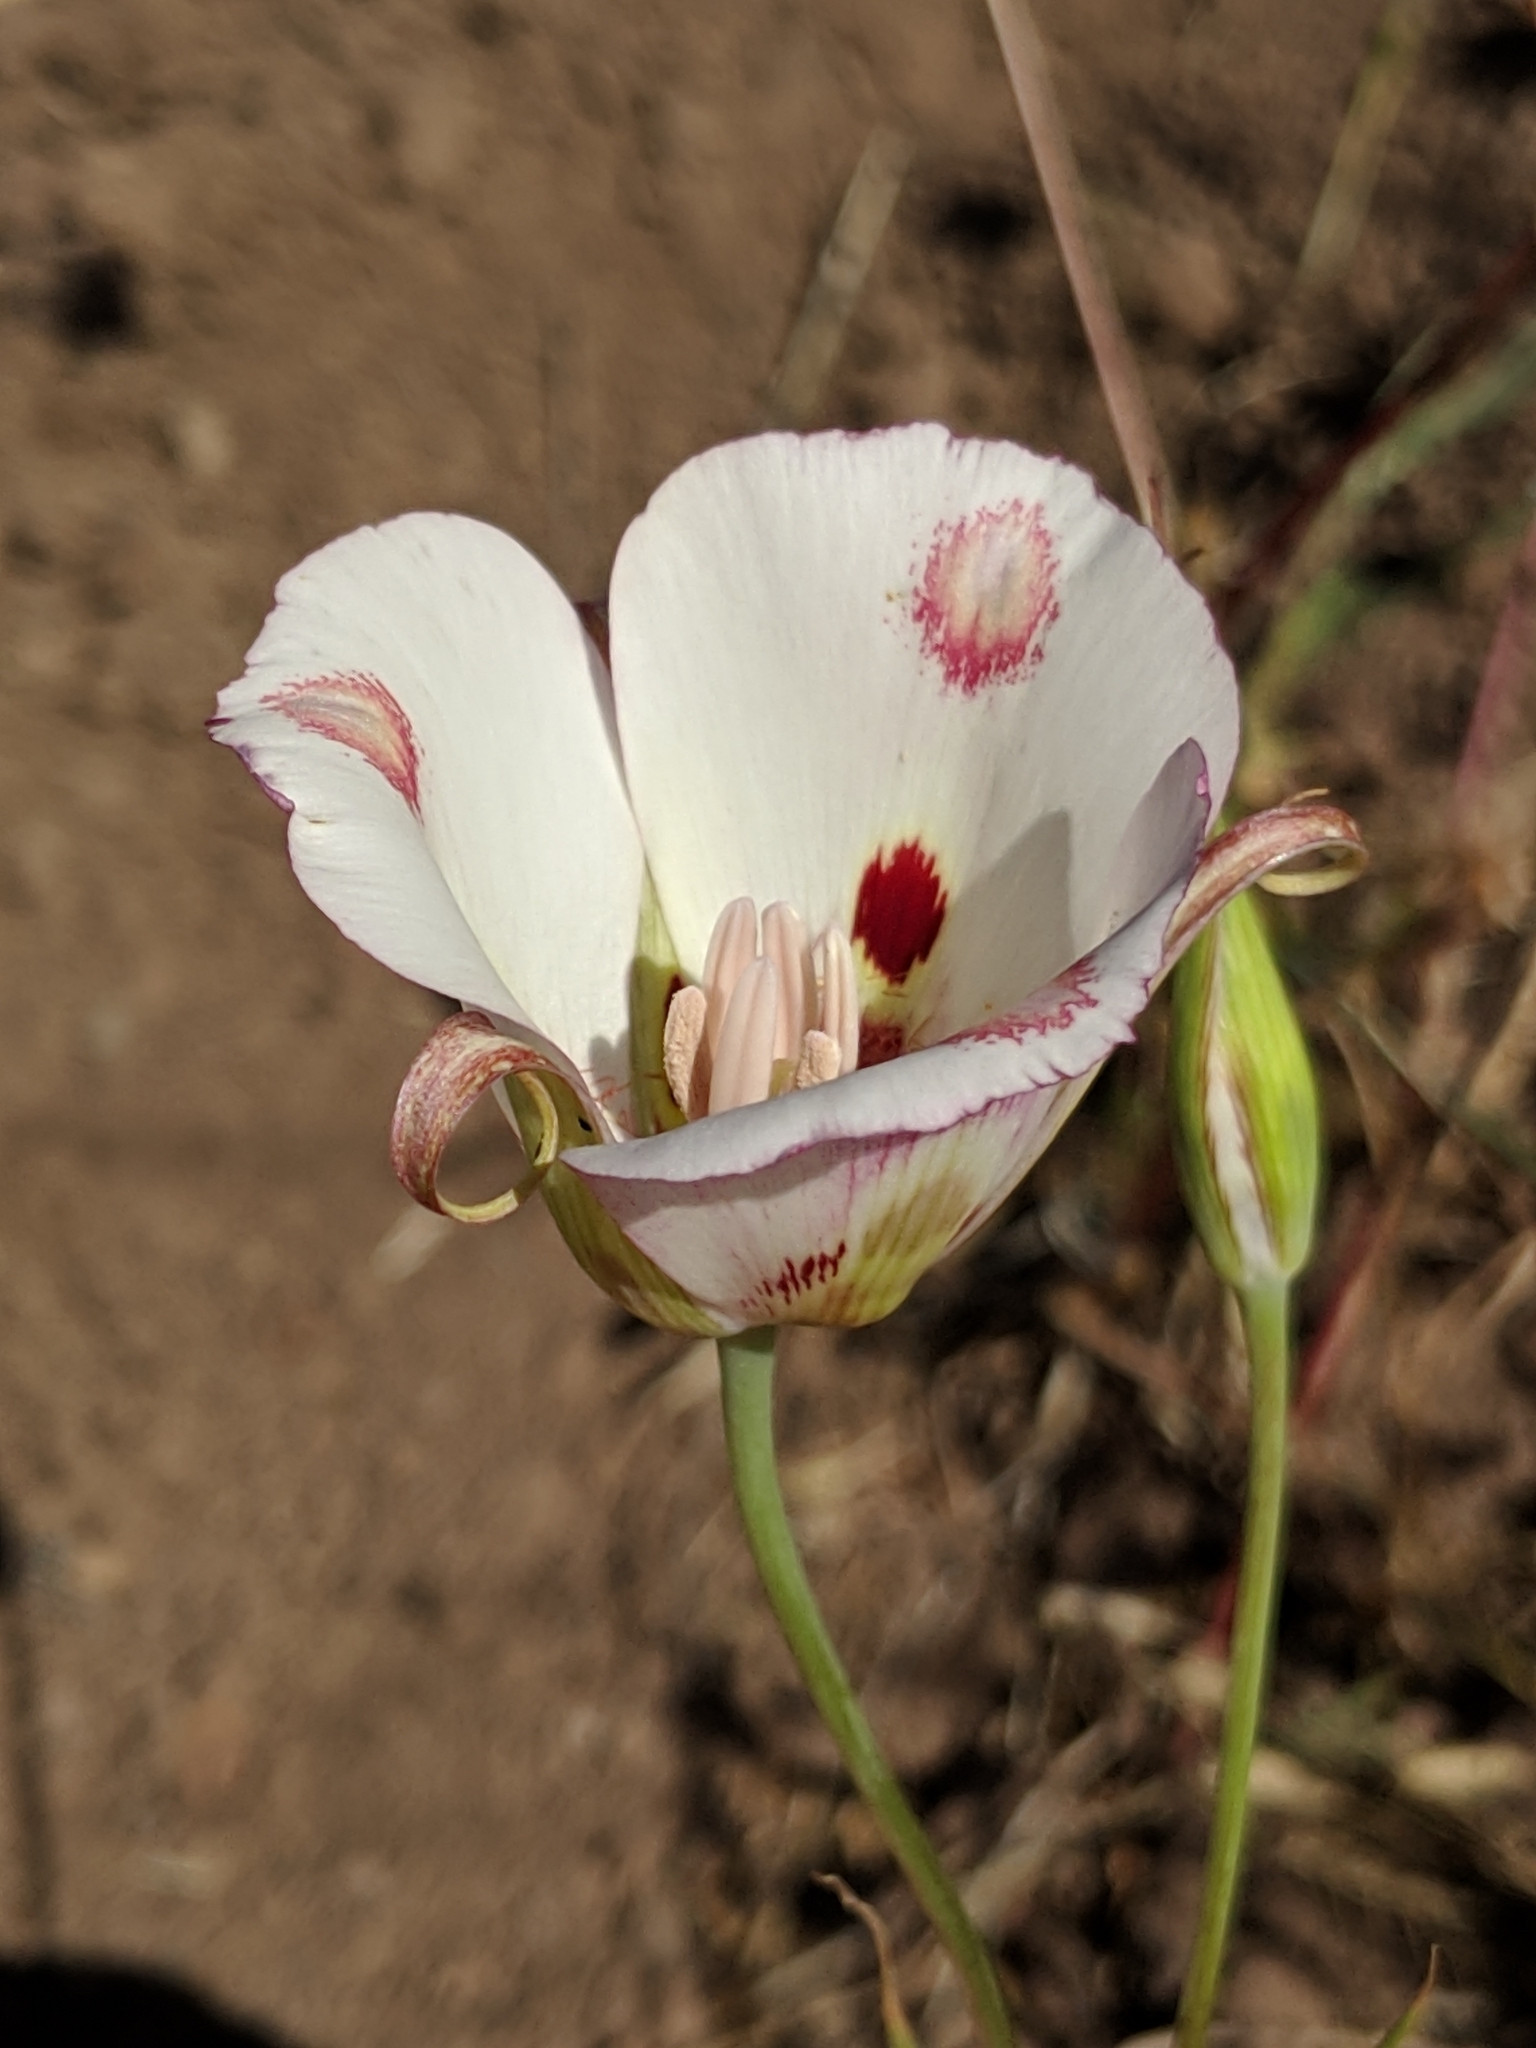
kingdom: Plantae
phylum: Tracheophyta
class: Liliopsida
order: Liliales
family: Liliaceae
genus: Calochortus
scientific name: Calochortus venustus
